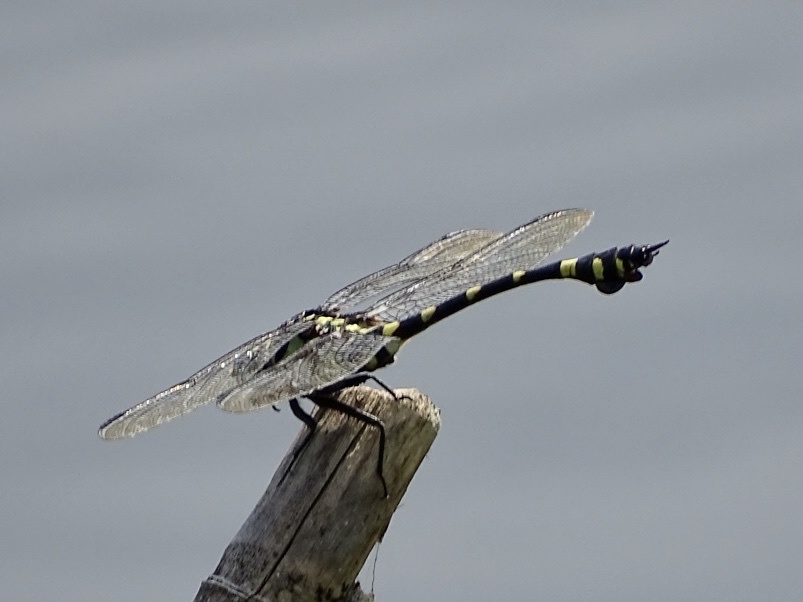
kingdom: Animalia
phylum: Arthropoda
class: Insecta
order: Odonata
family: Gomphidae
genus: Ictinogomphus
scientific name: Ictinogomphus pertinax
